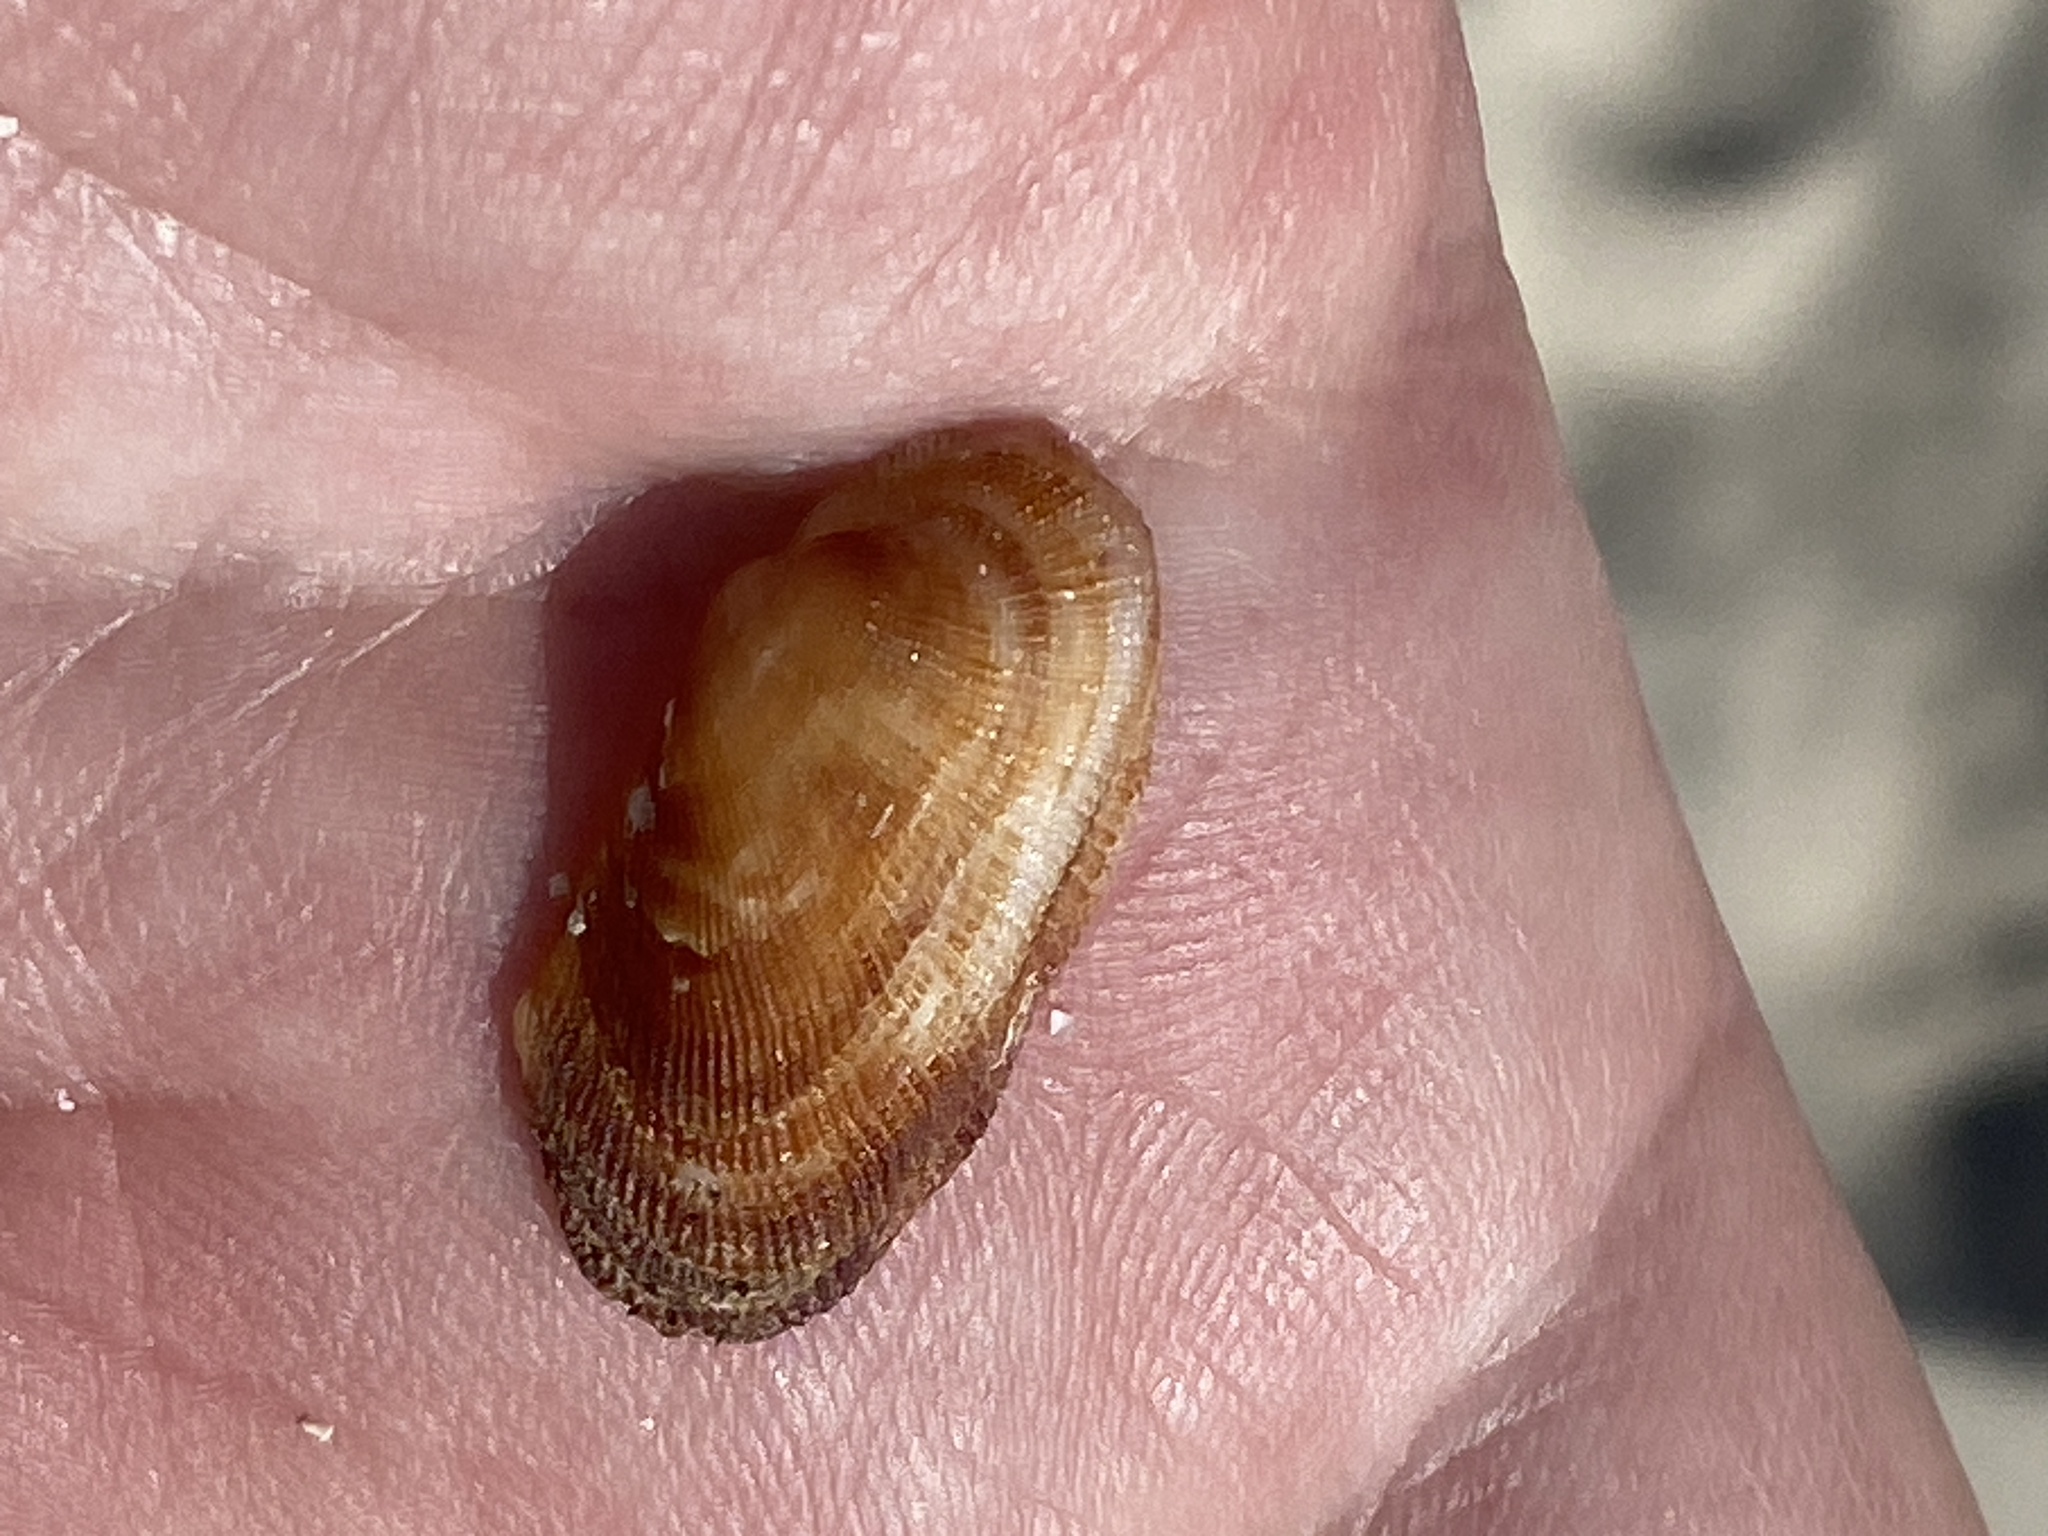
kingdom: Animalia
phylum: Mollusca
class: Bivalvia
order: Arcida
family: Arcidae
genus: Barbatia
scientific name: Barbatia barbata
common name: Bearded ark
